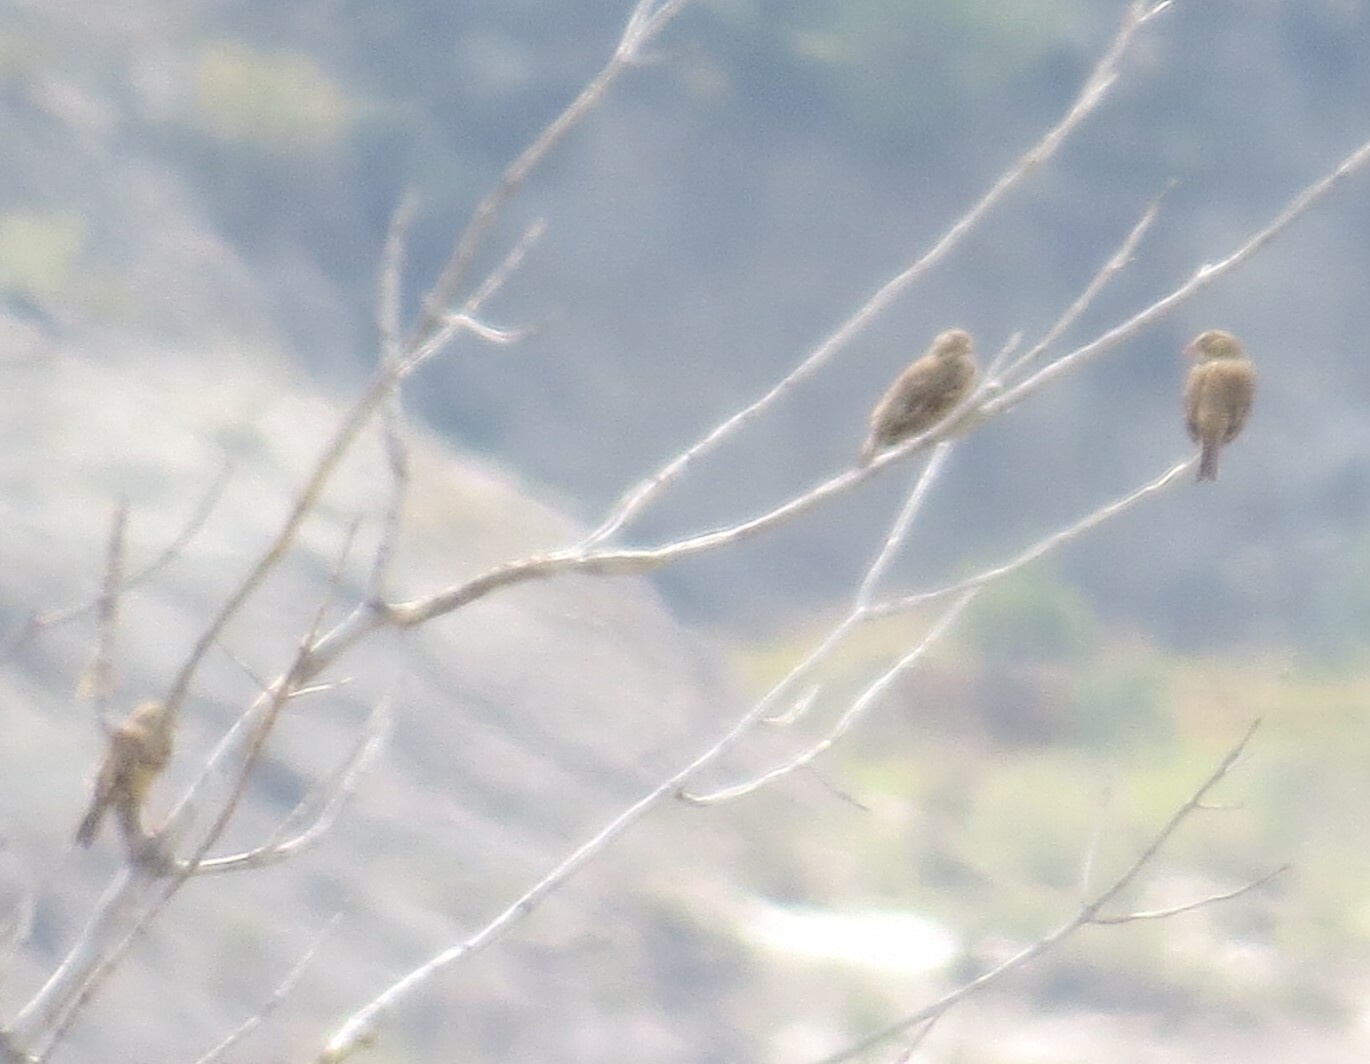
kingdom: Animalia
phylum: Chordata
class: Aves
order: Passeriformes
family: Passerellidae
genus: Pooecetes
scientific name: Pooecetes gramineus
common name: Vesper sparrow
